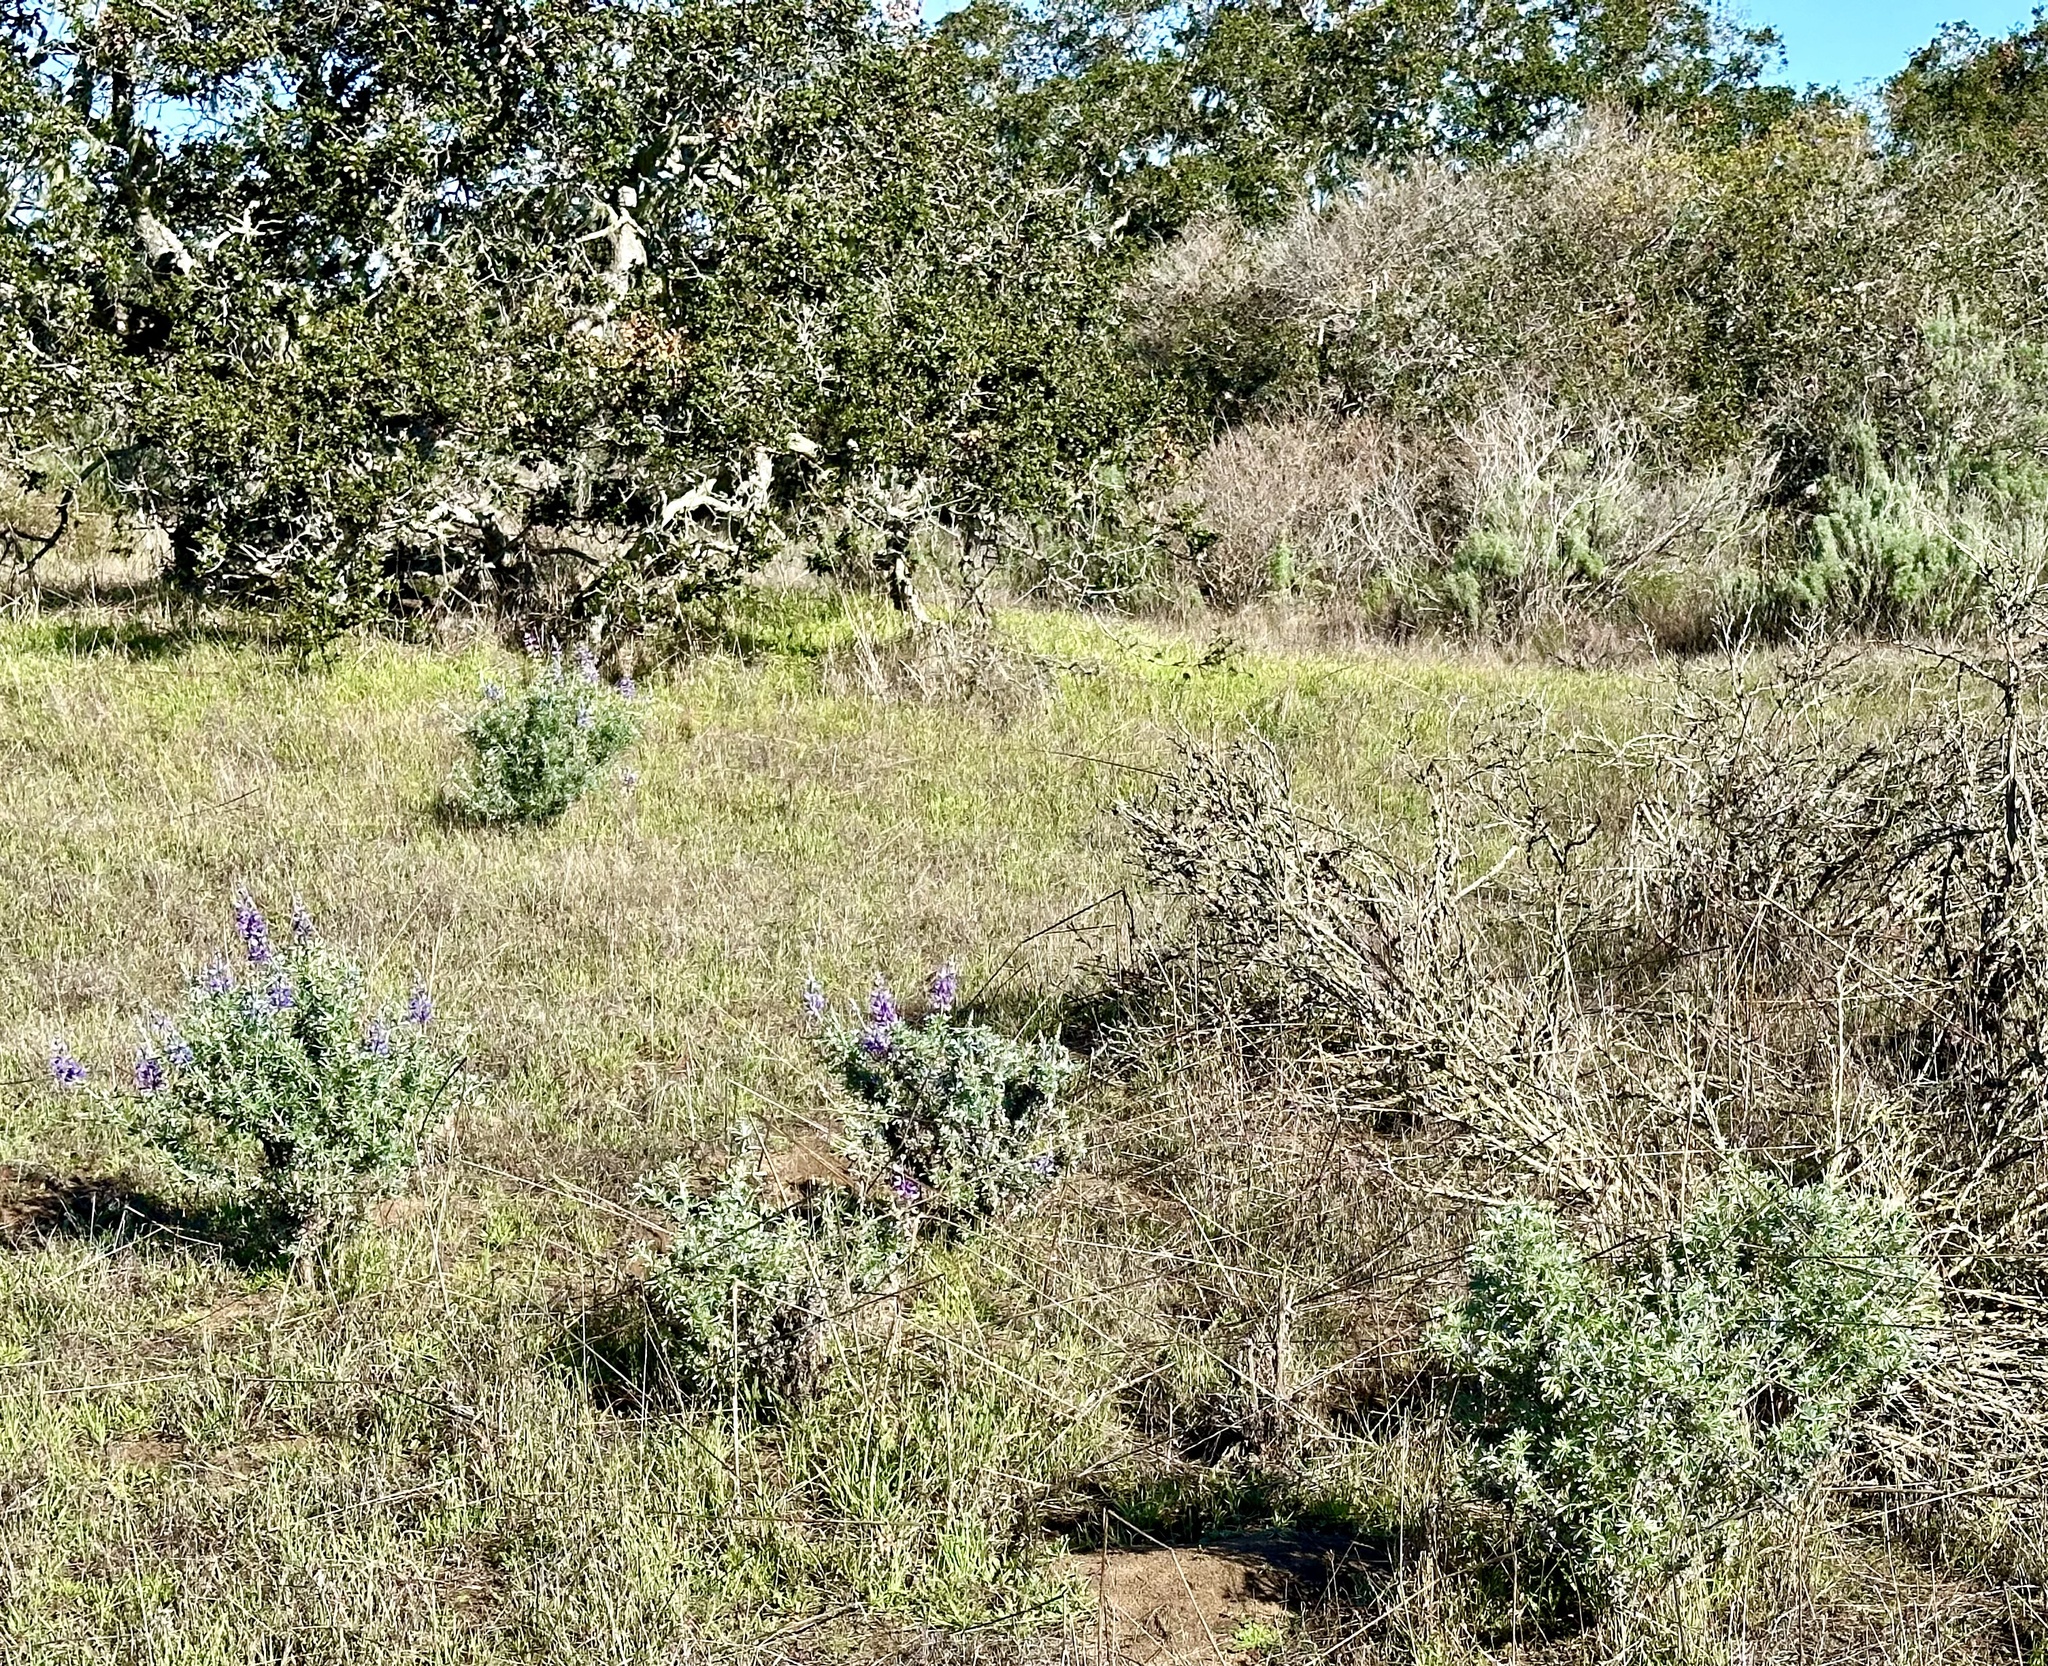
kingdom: Animalia
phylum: Arthropoda
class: Insecta
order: Diptera
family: Cecidomyiidae
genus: Dasineura
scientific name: Dasineura lupinorum
